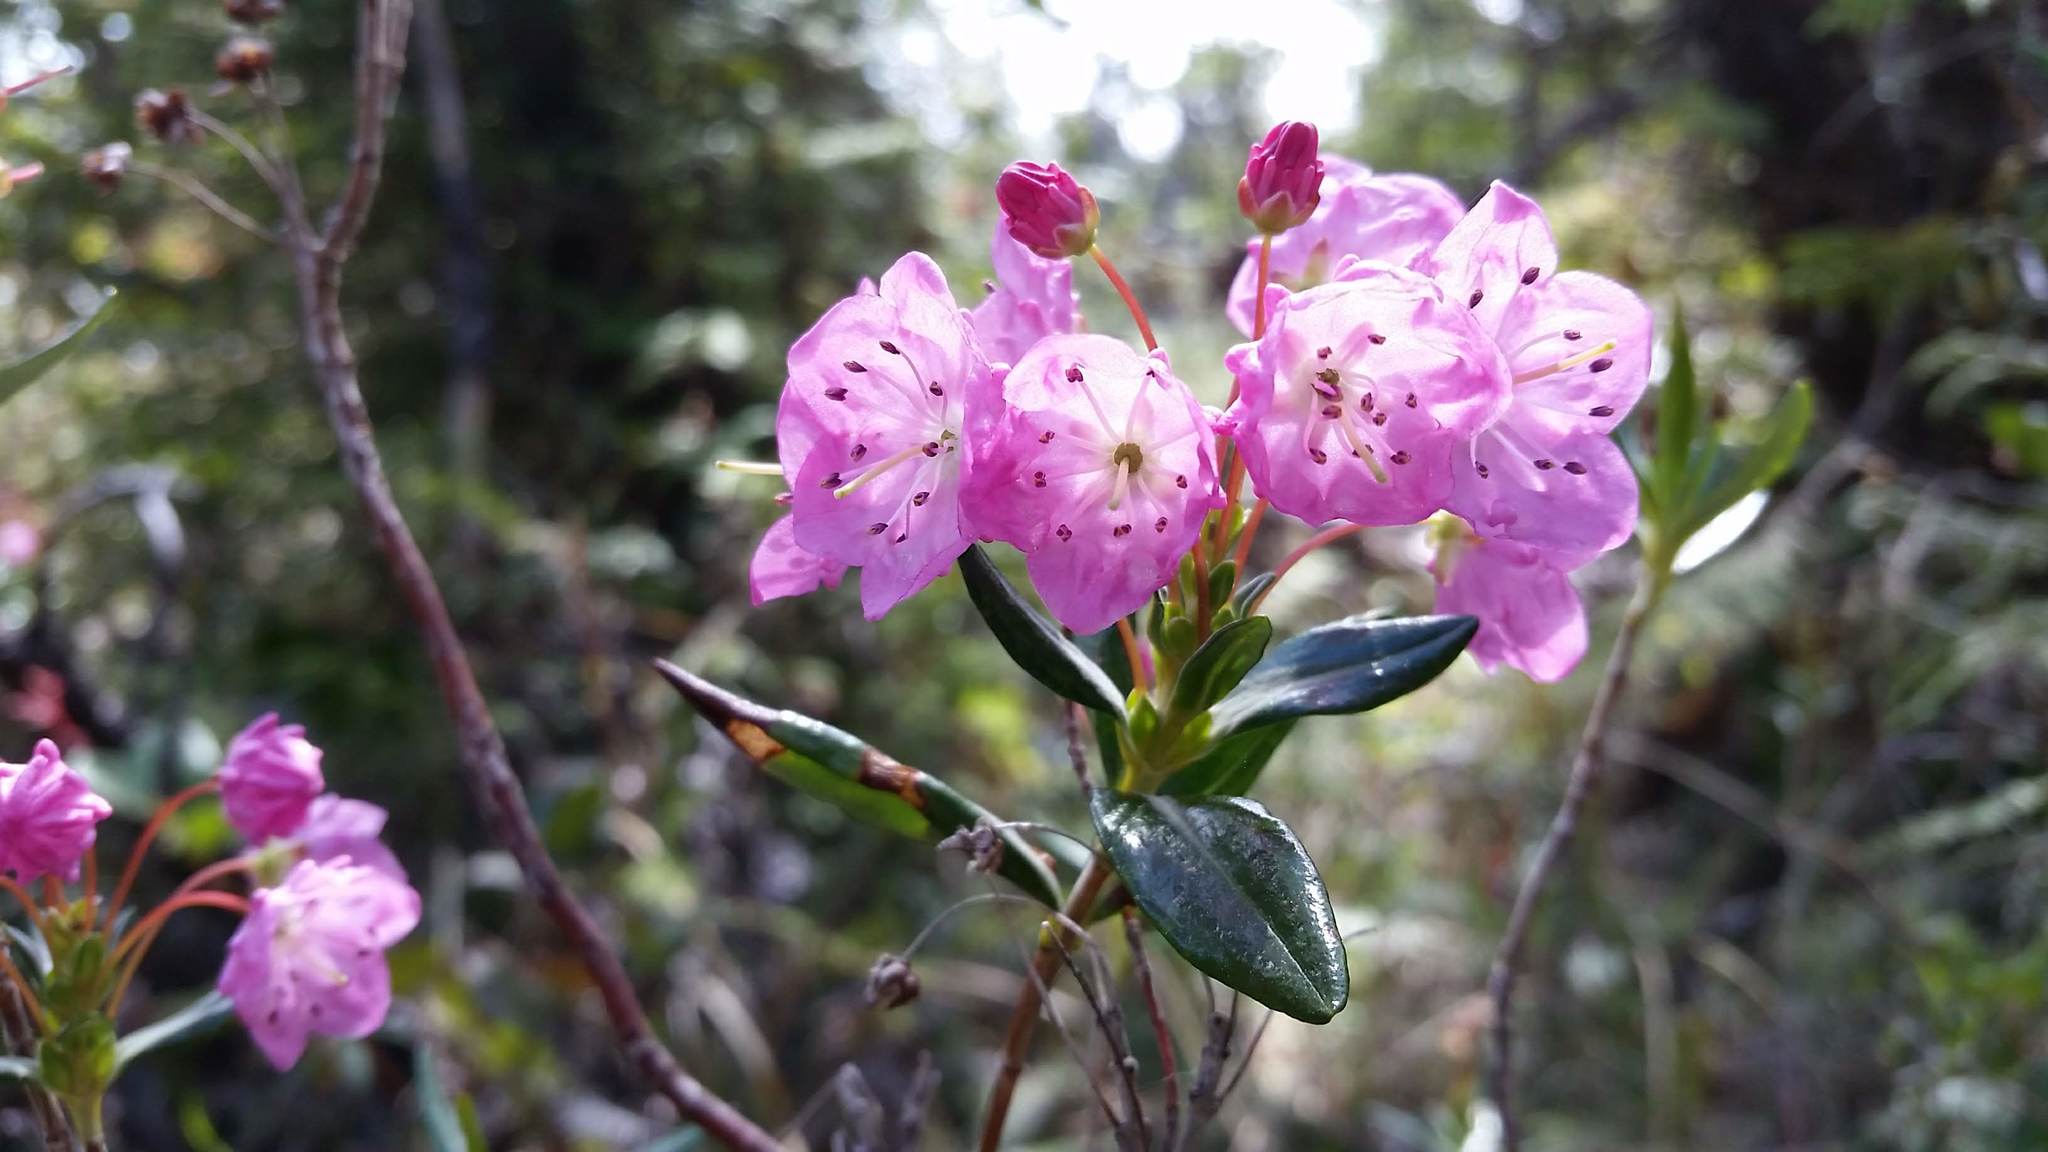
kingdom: Plantae
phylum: Tracheophyta
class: Magnoliopsida
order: Ericales
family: Ericaceae
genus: Kalmia
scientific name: Kalmia microphylla
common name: Alpine bog laurel
